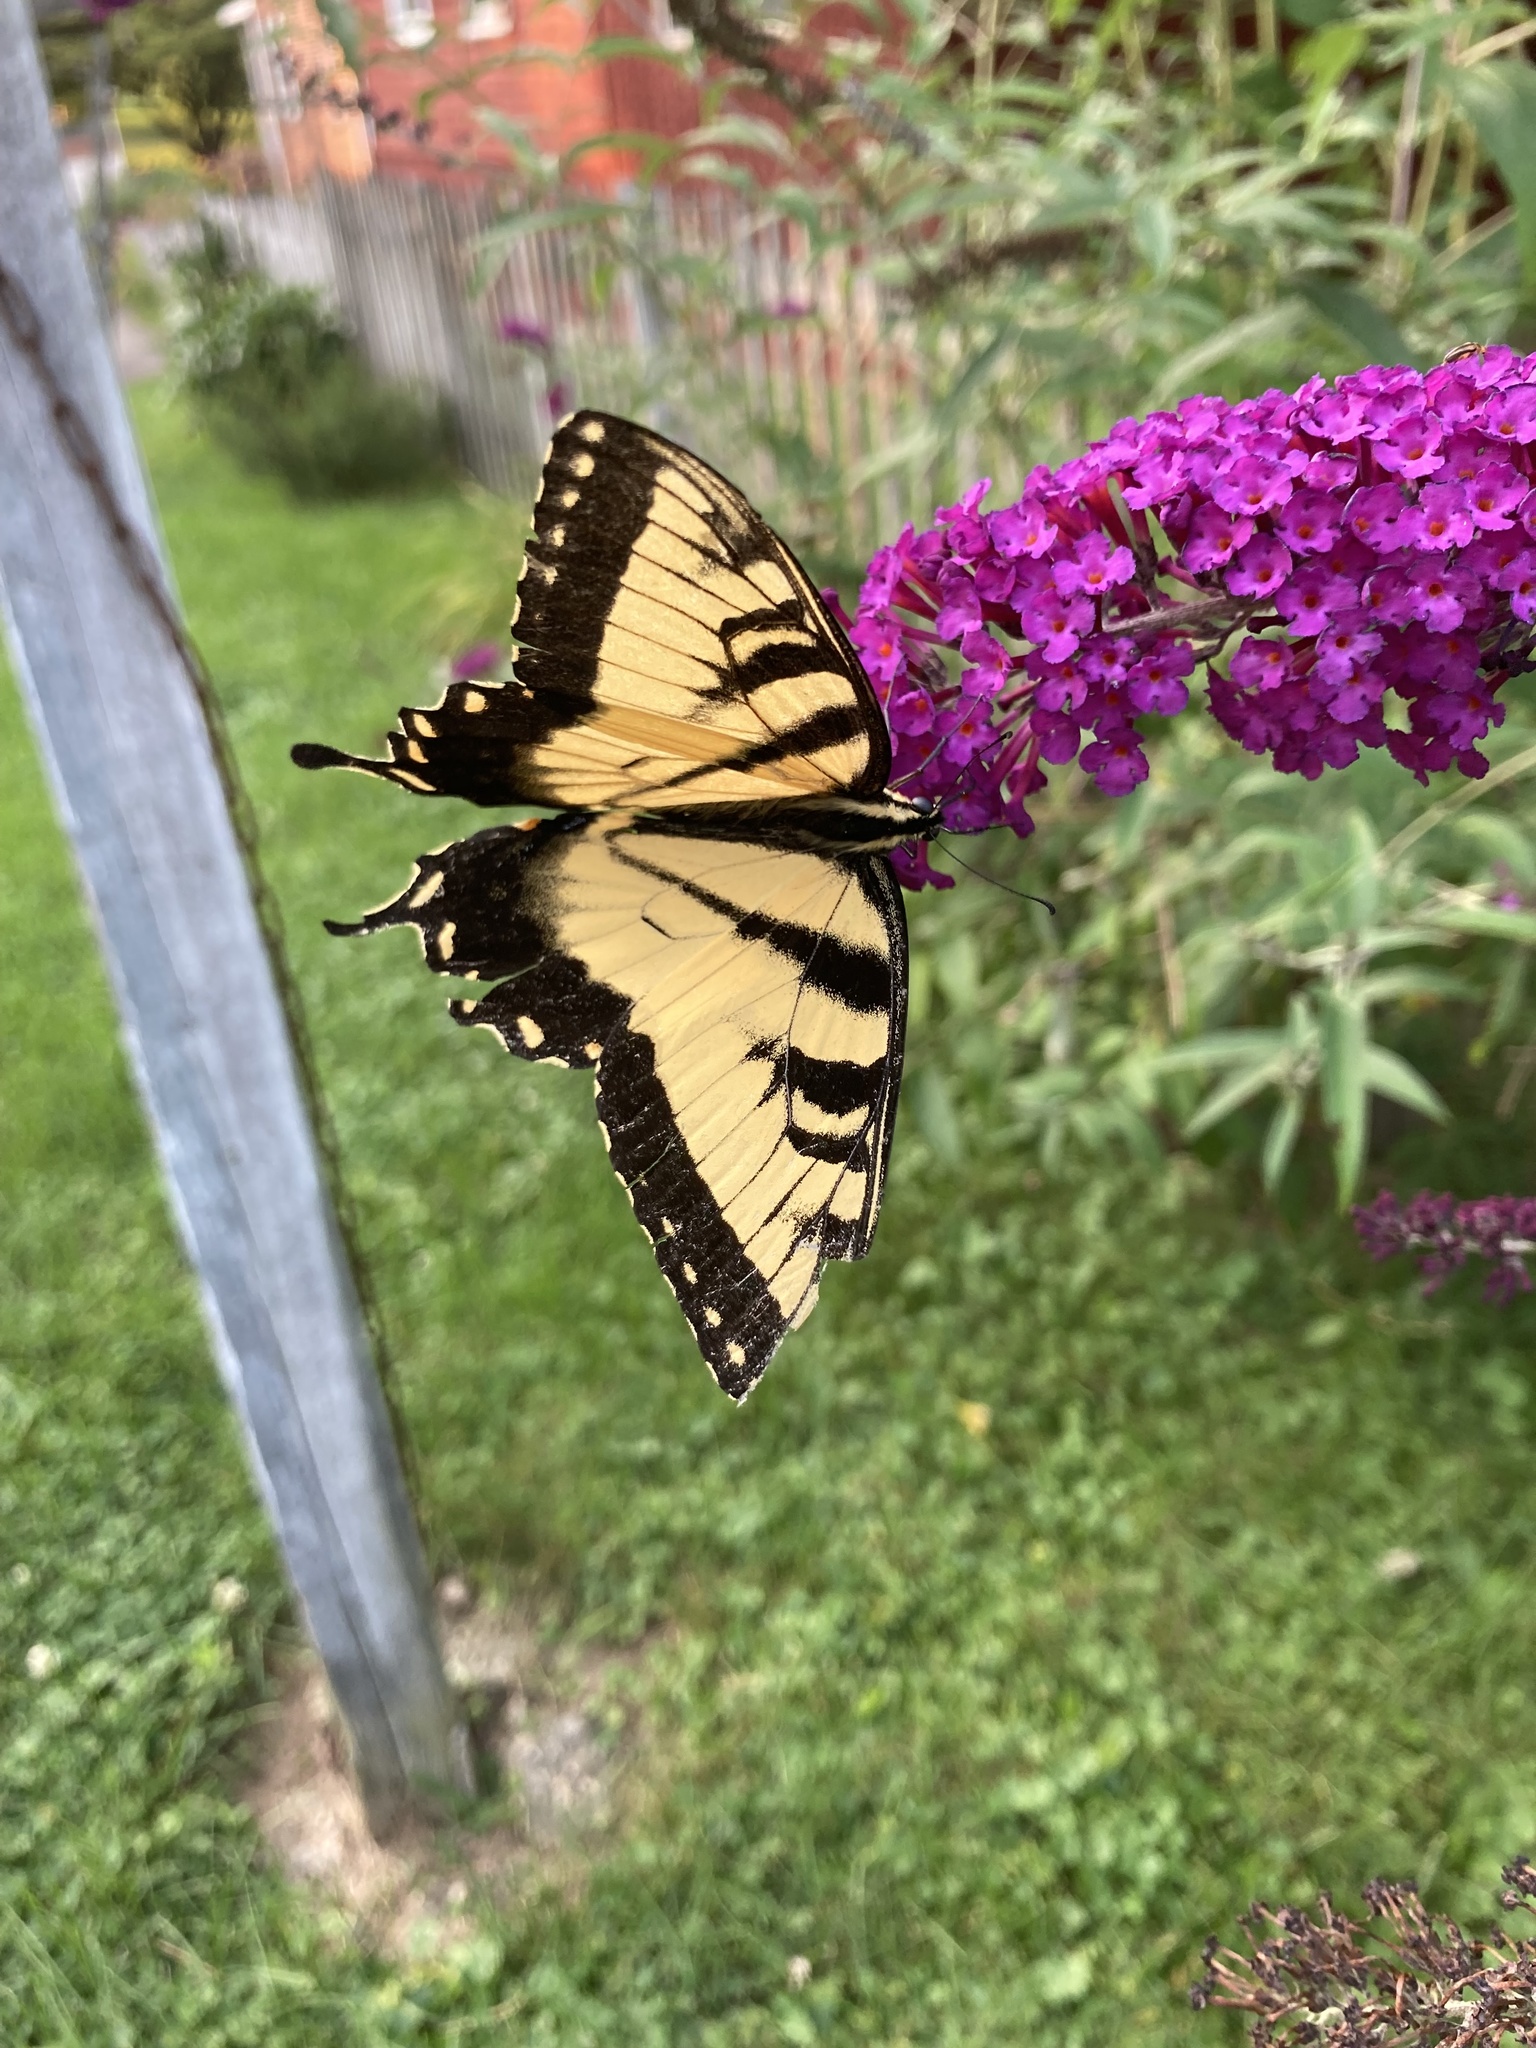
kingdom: Animalia
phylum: Arthropoda
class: Insecta
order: Lepidoptera
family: Papilionidae
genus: Papilio
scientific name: Papilio glaucus
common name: Tiger swallowtail
